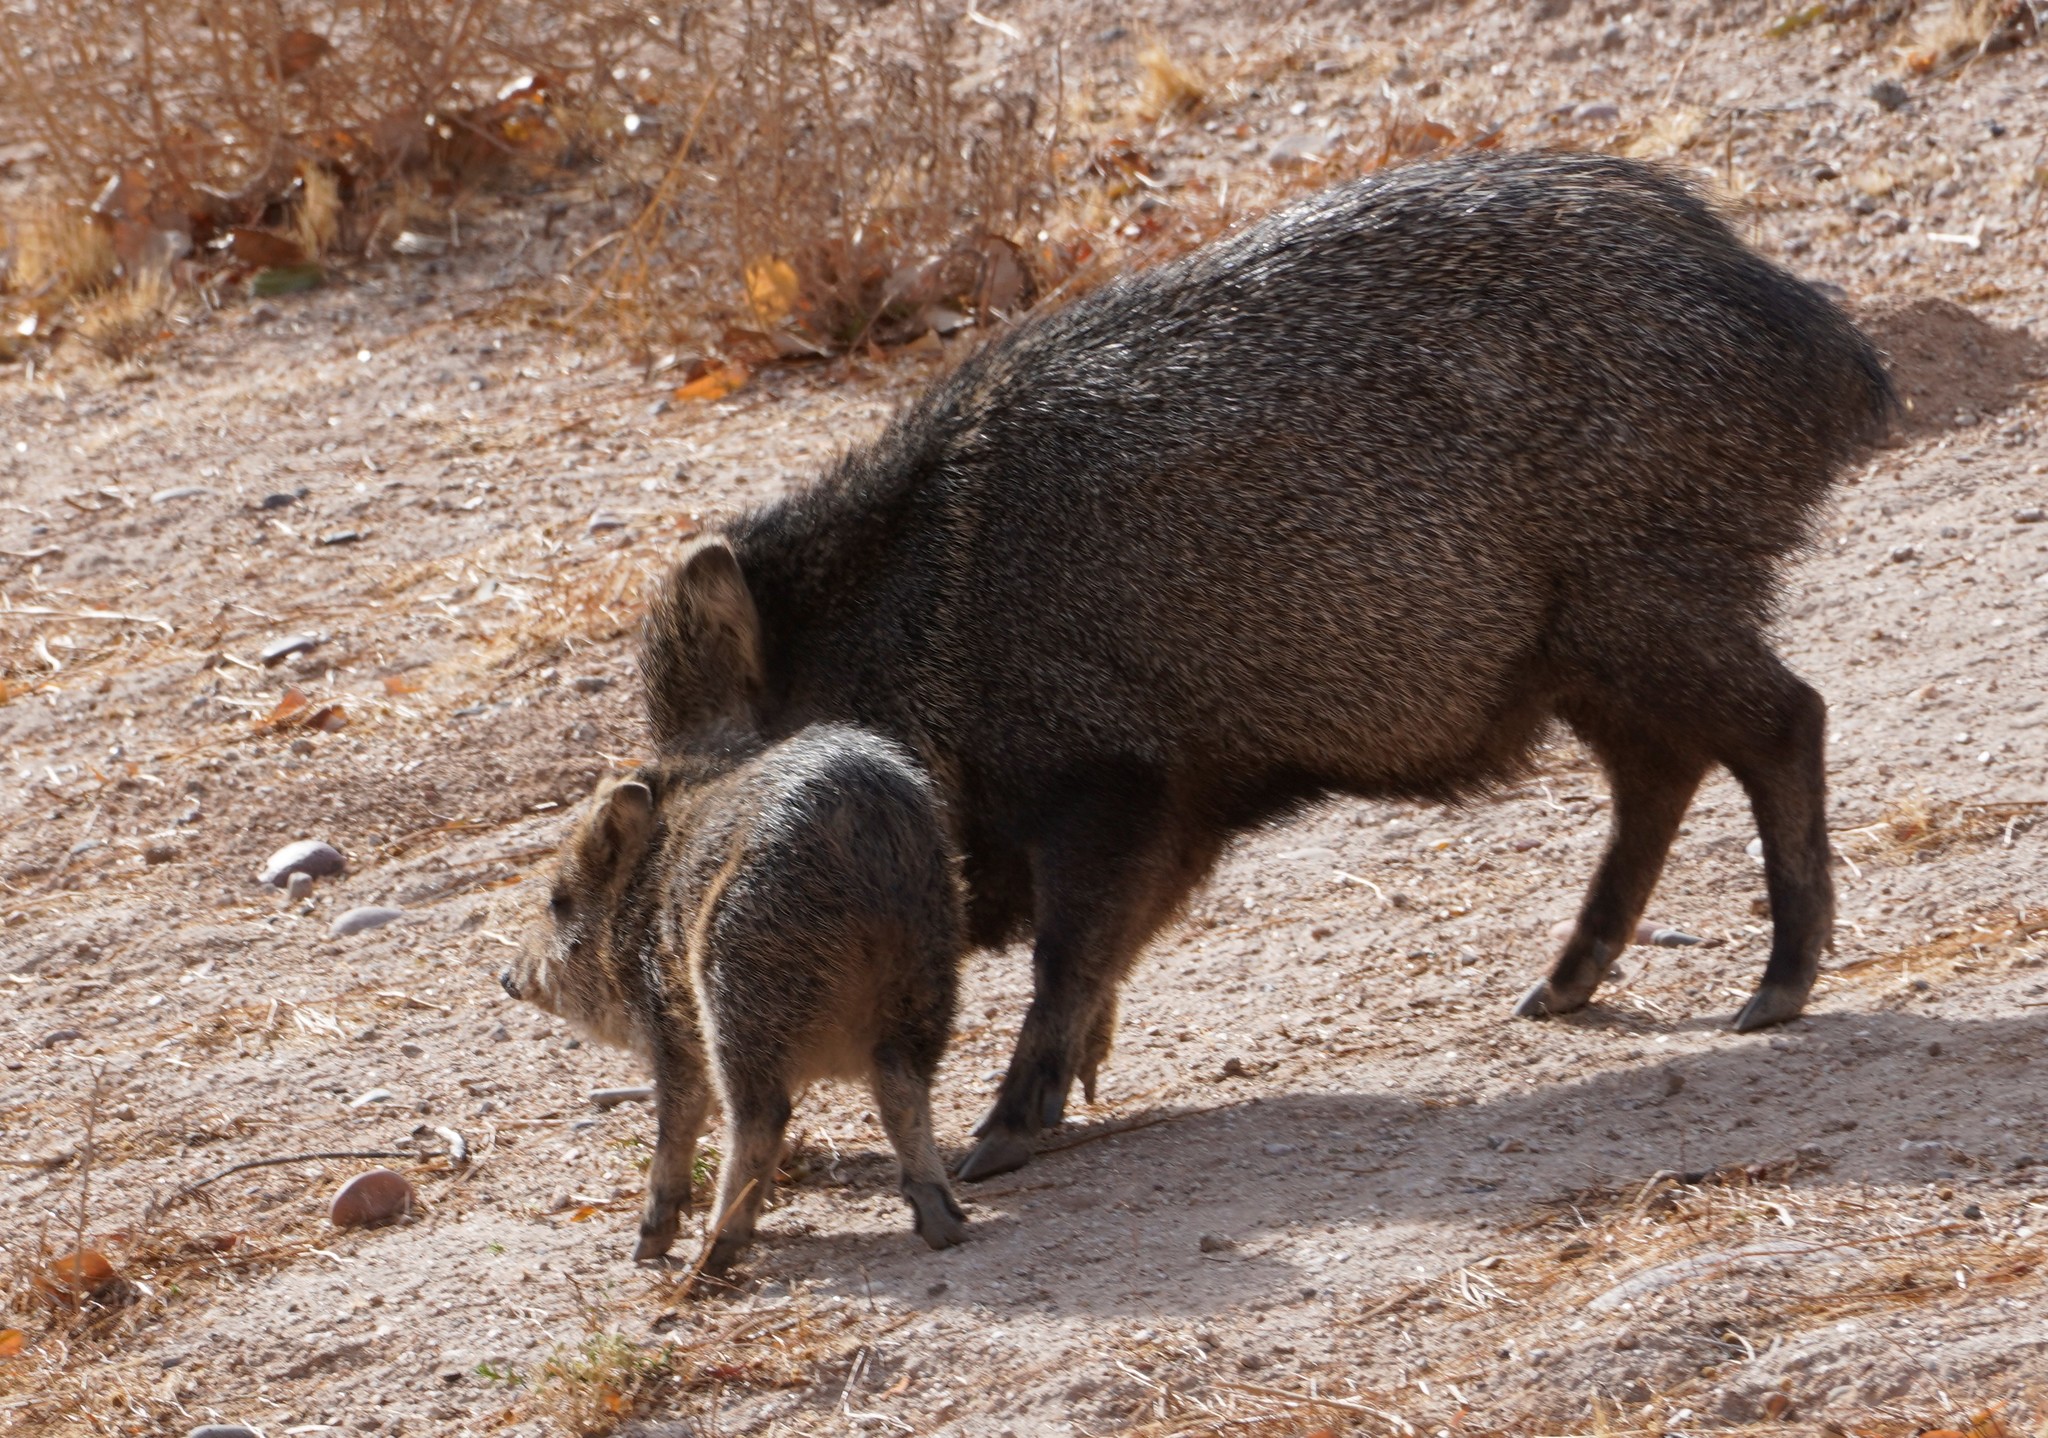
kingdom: Animalia
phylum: Chordata
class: Mammalia
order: Artiodactyla
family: Tayassuidae
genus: Pecari
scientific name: Pecari tajacu
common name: Collared peccary
